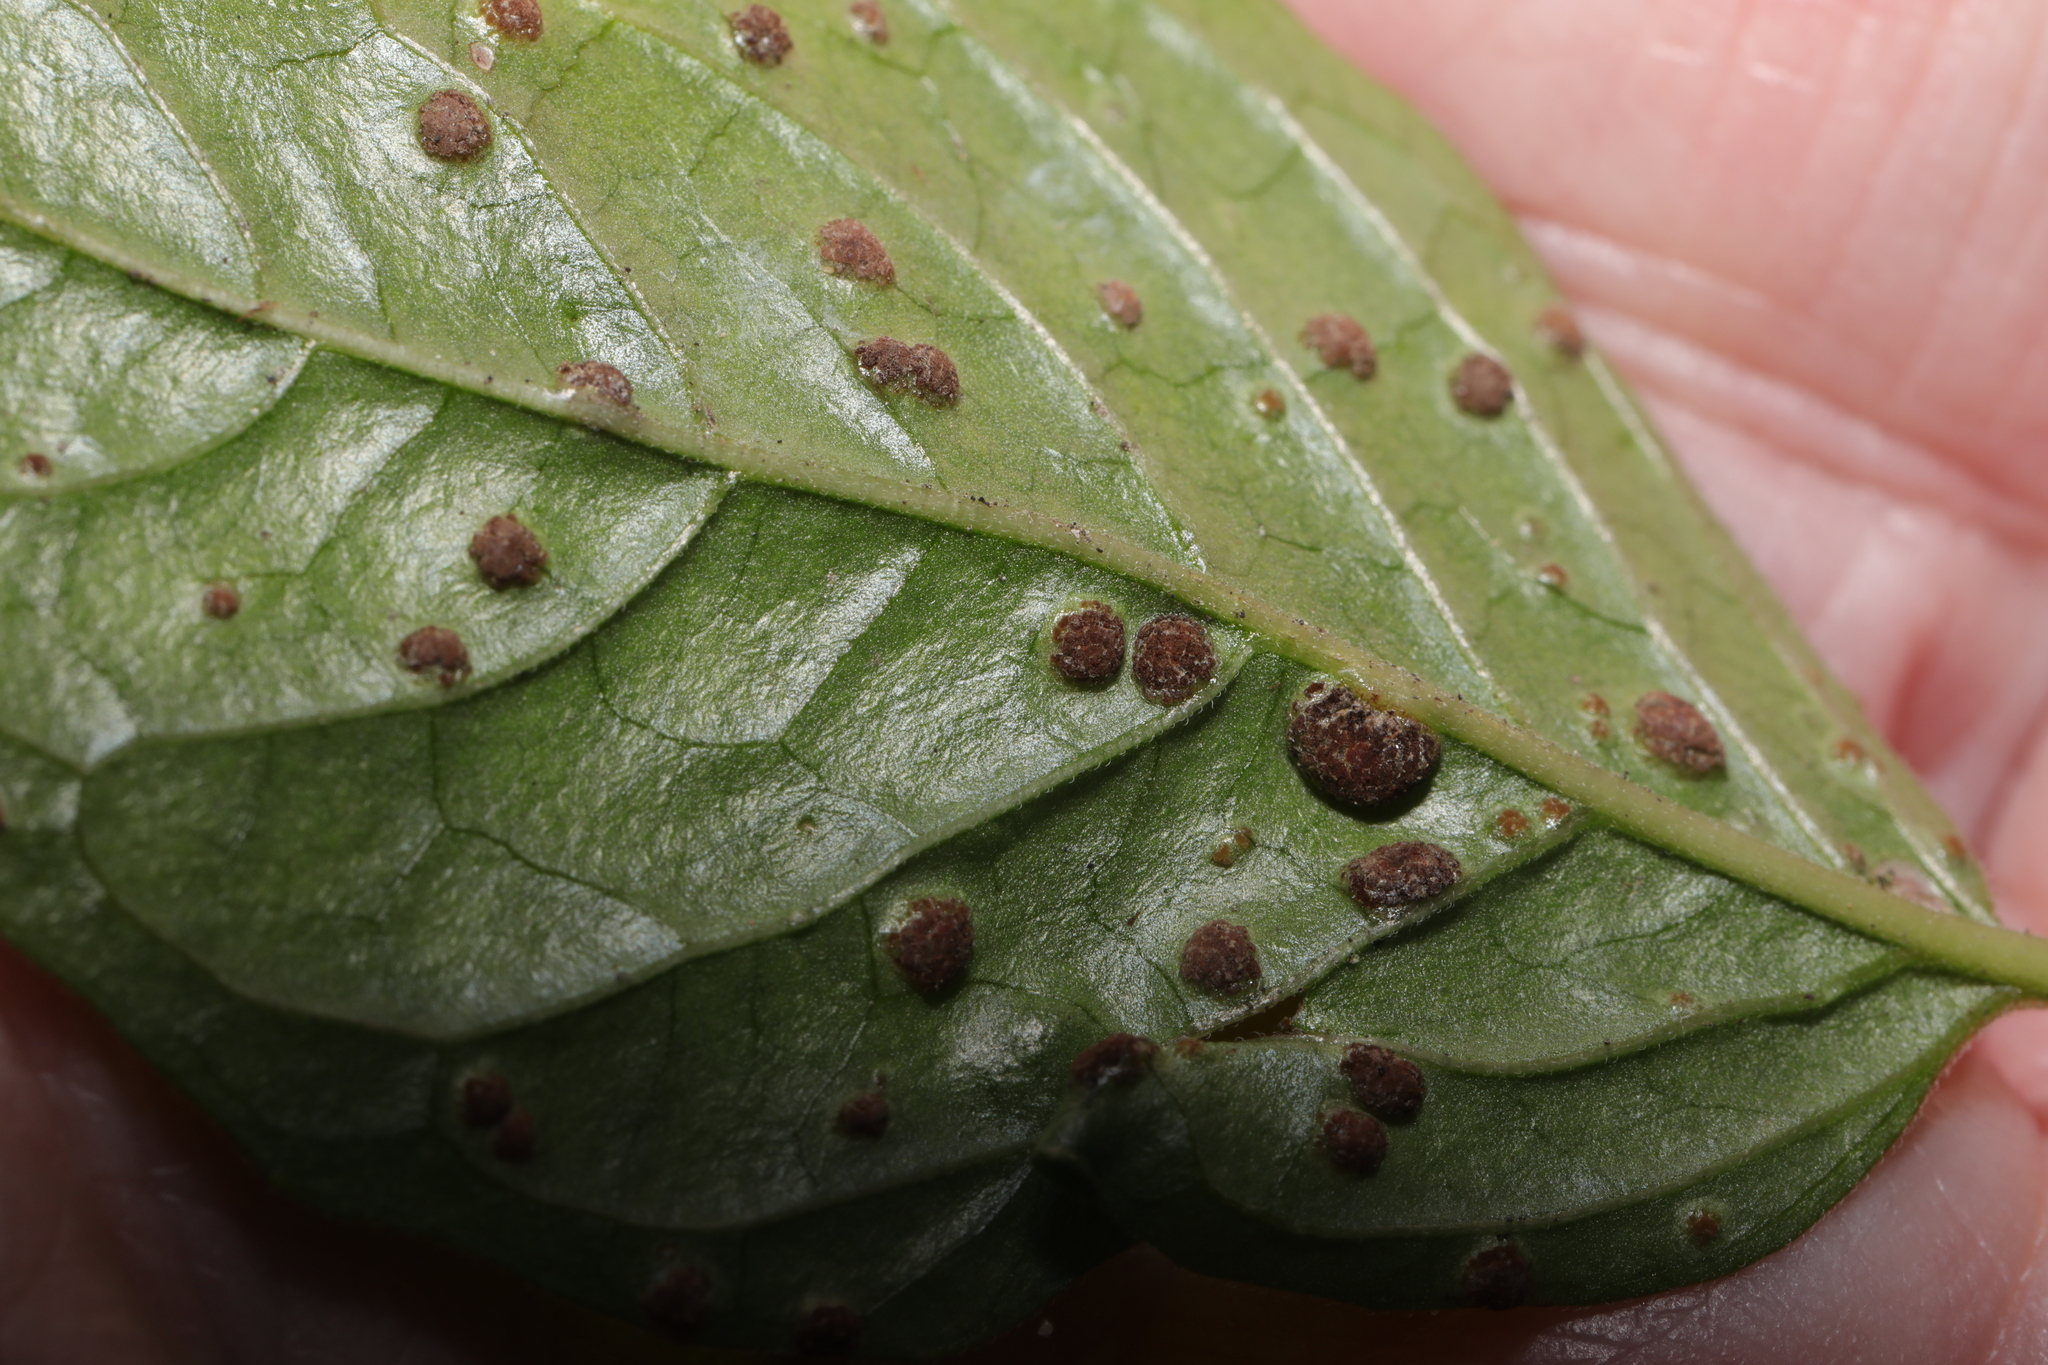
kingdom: Fungi
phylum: Basidiomycota
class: Pucciniomycetes
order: Pucciniales
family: Pucciniaceae
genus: Puccinia
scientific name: Puccinia circaeae
